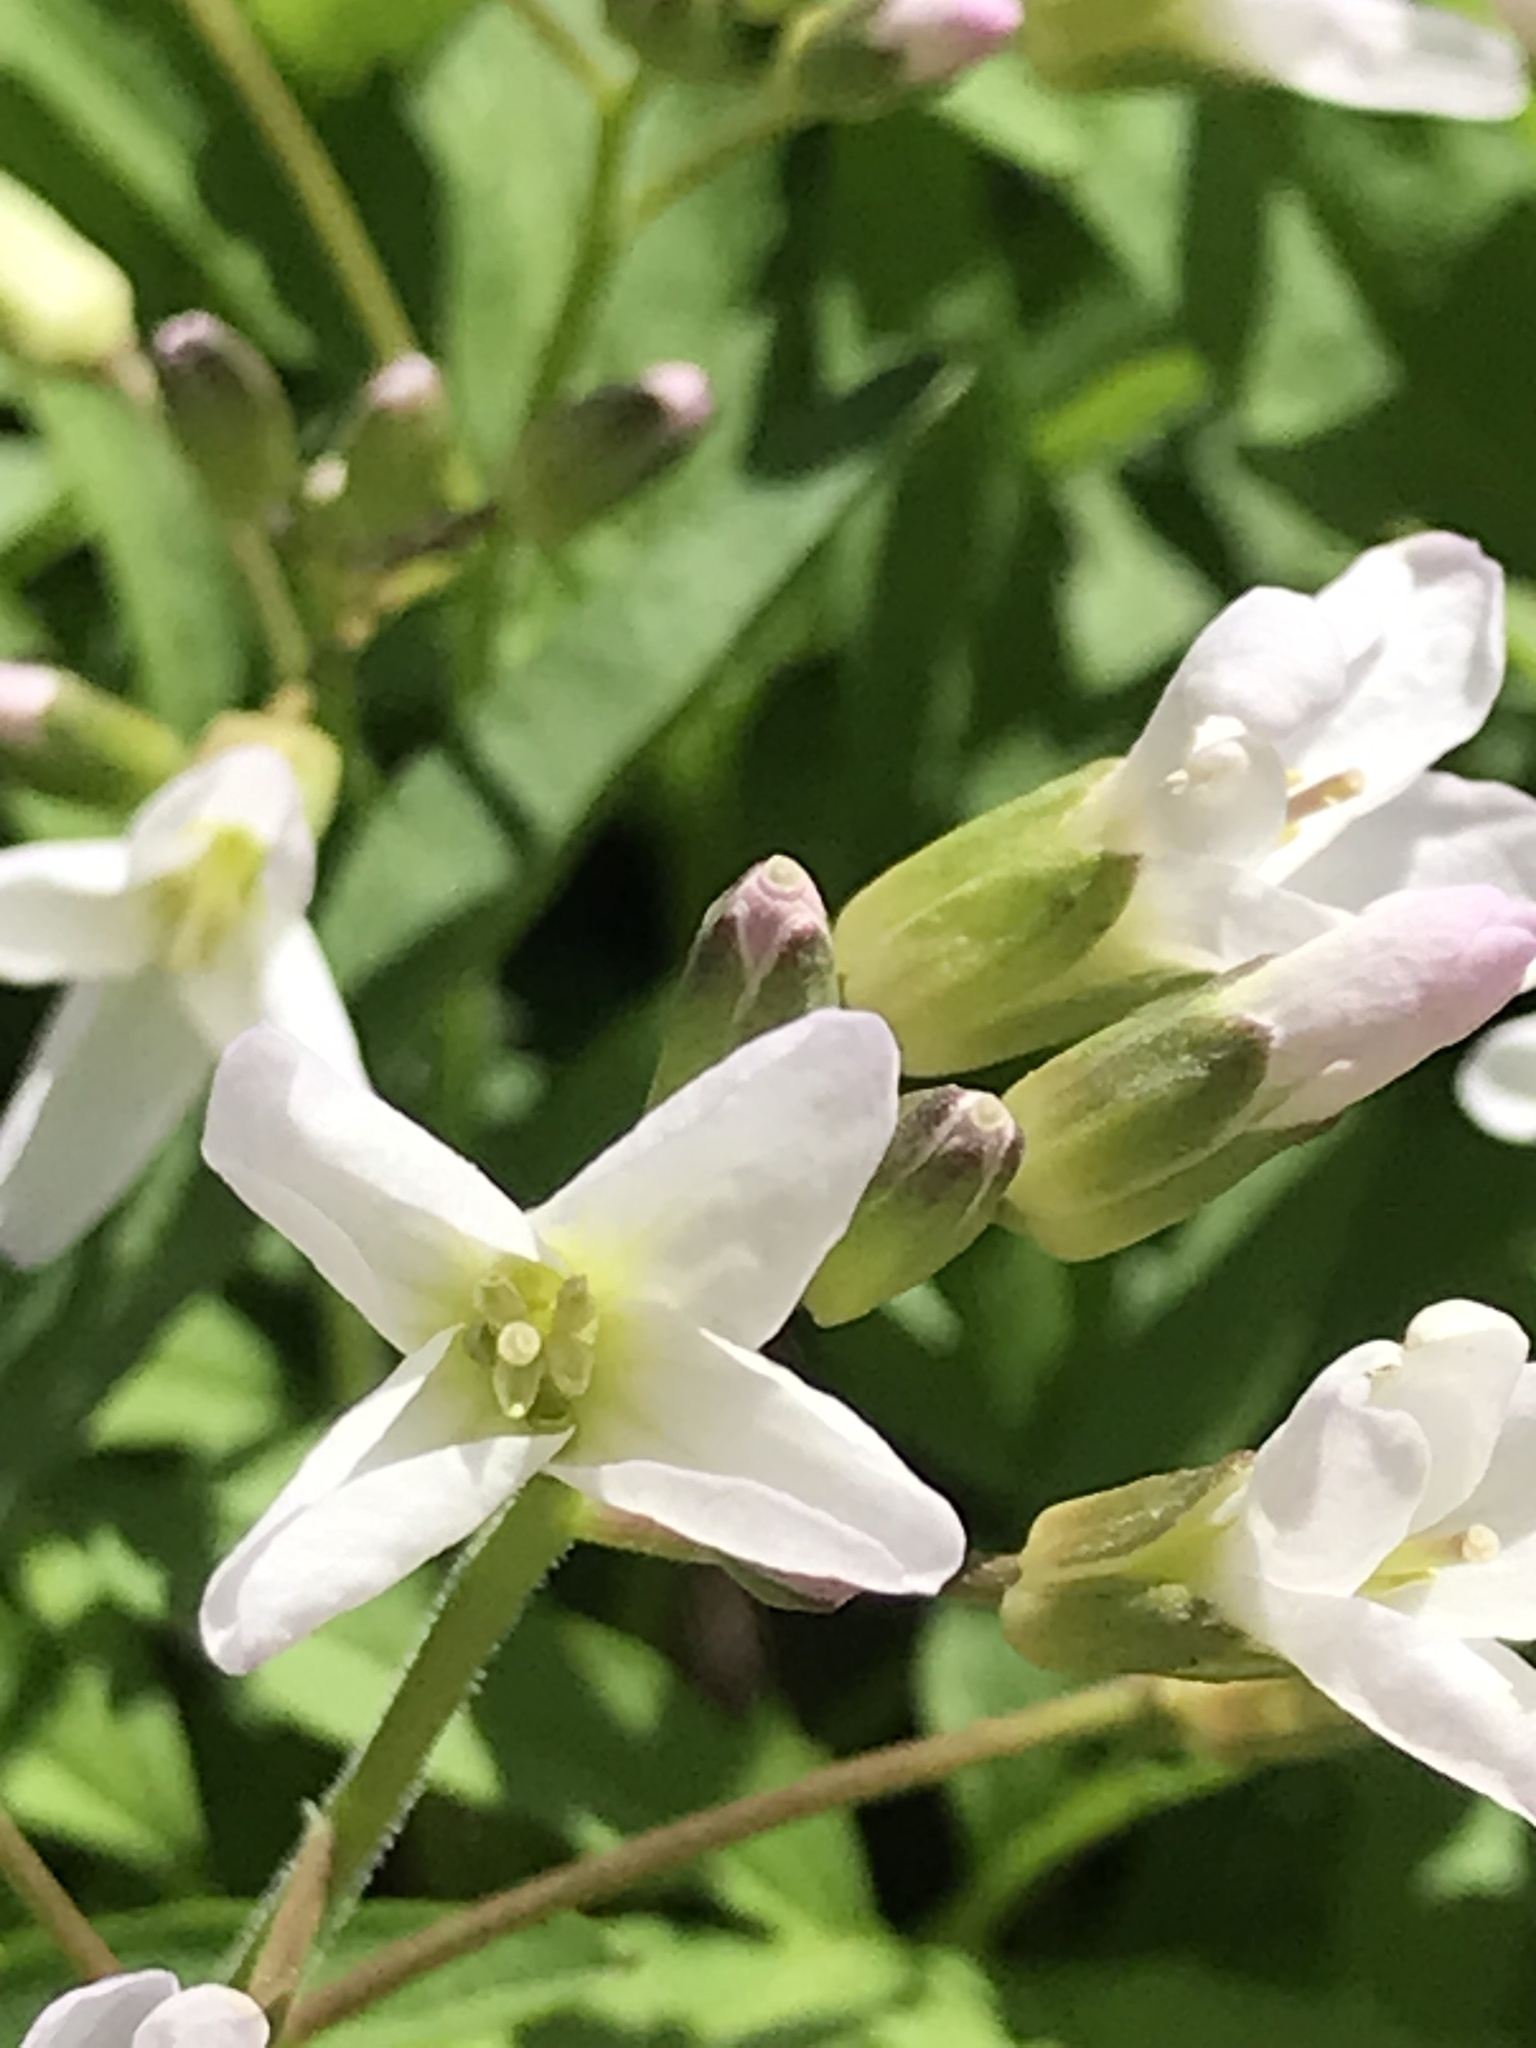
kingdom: Plantae
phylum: Tracheophyta
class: Magnoliopsida
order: Brassicales
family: Brassicaceae
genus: Cardamine
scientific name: Cardamine concatenata
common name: Cut-leaf toothcup
